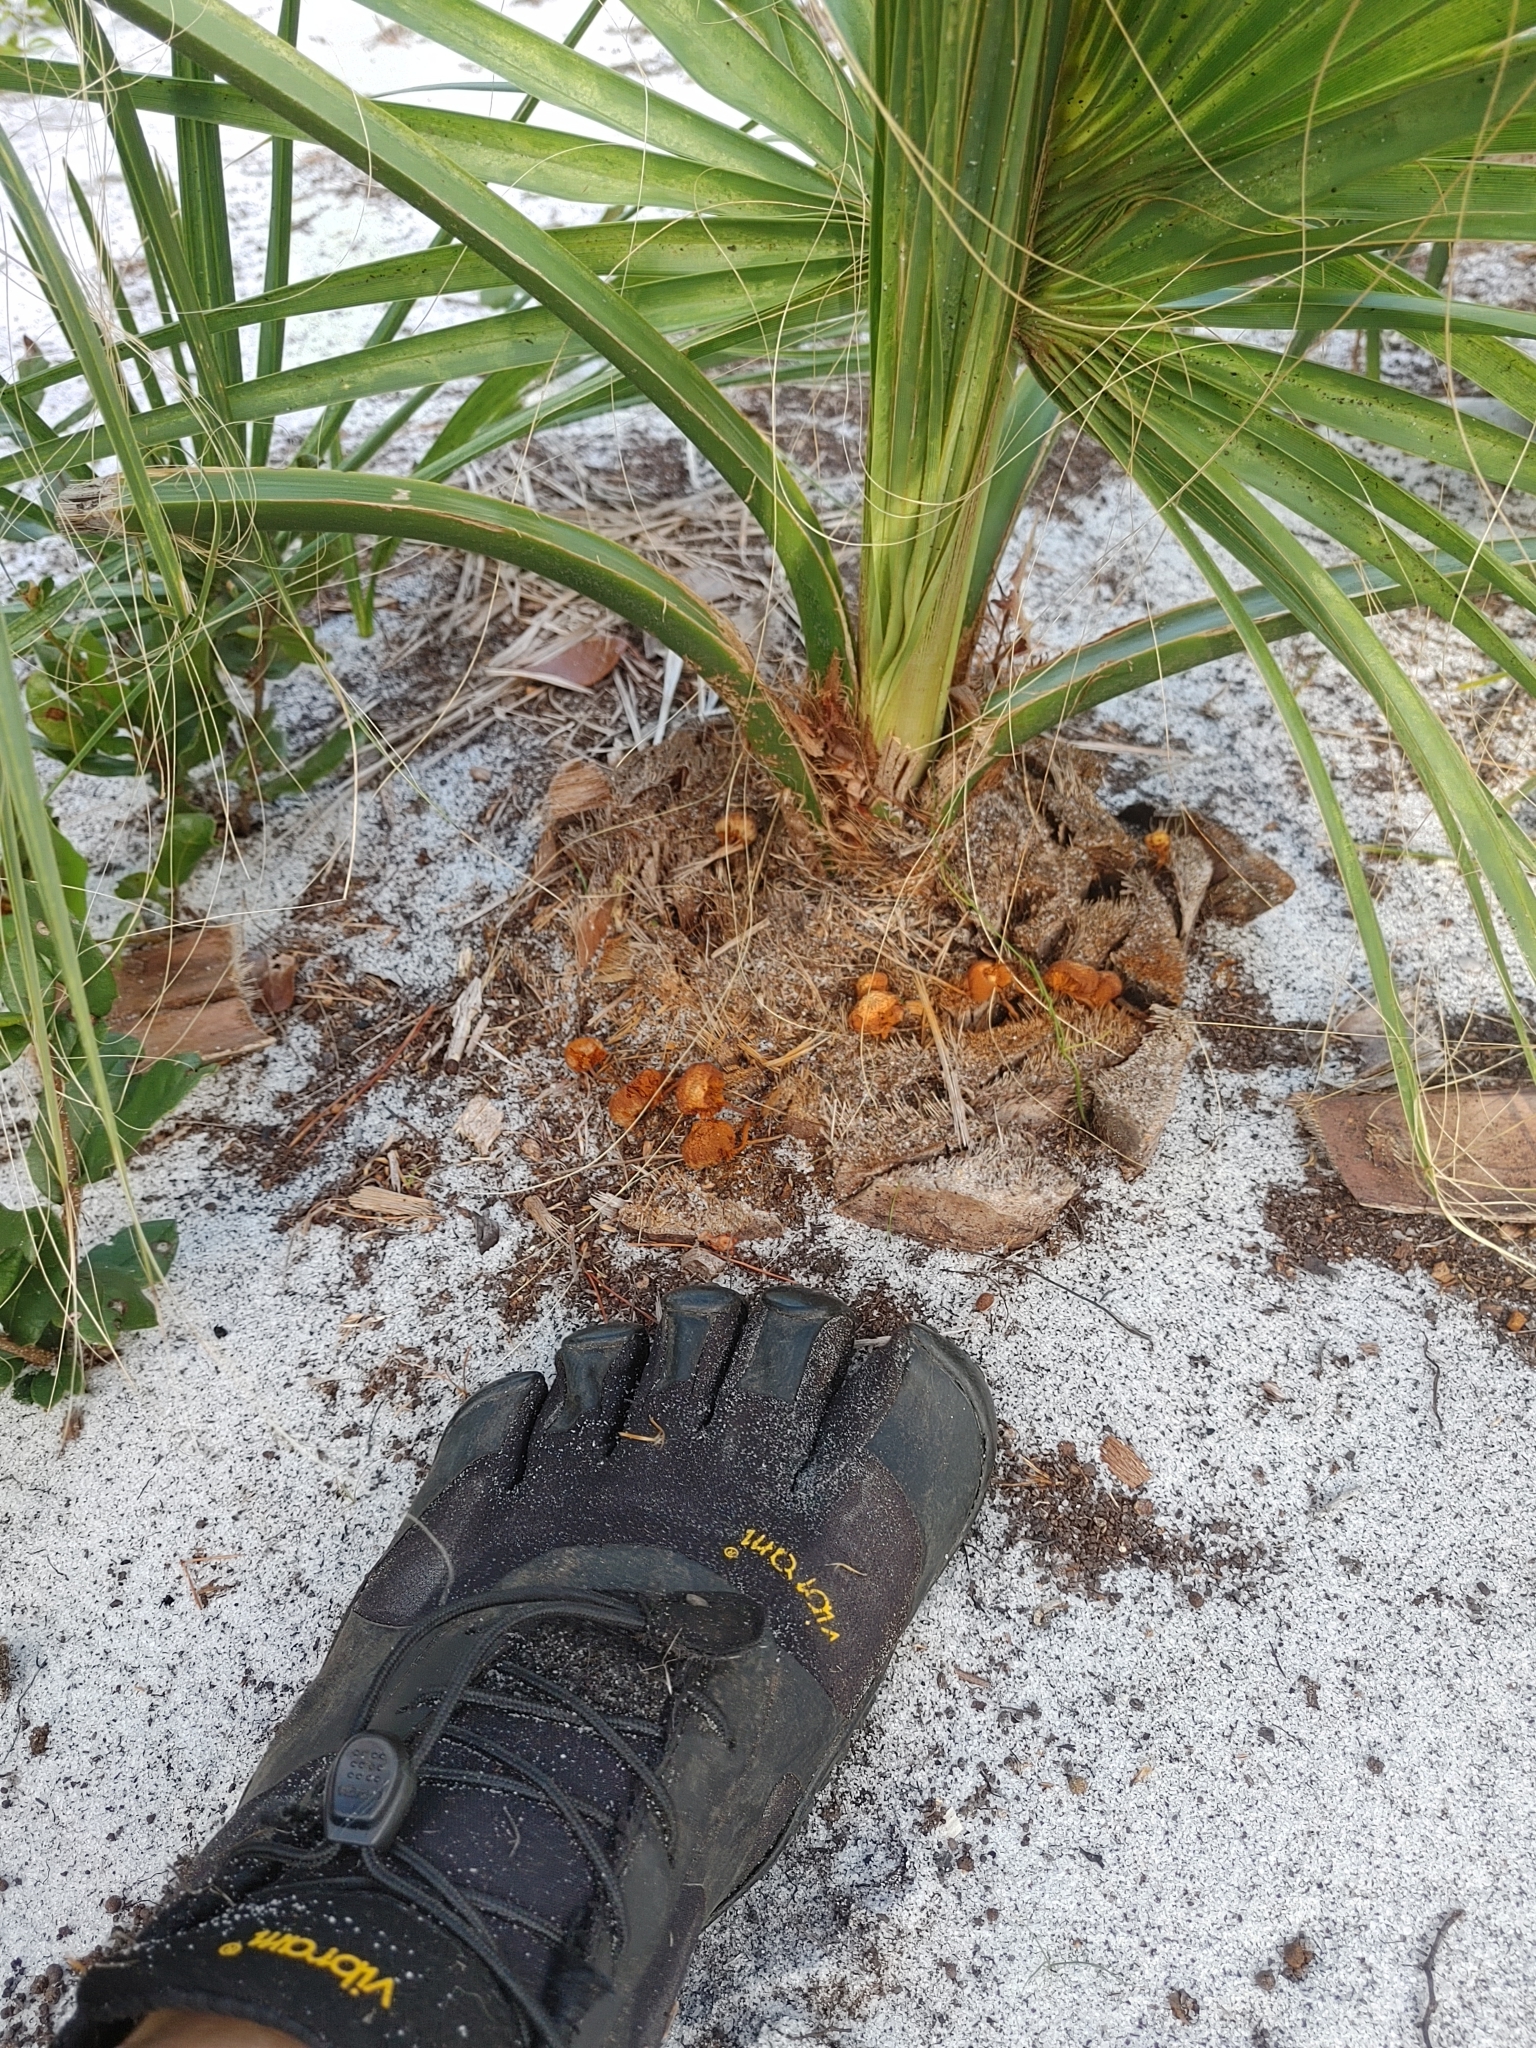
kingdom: Plantae
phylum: Tracheophyta
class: Liliopsida
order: Arecales
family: Arecaceae
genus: Sabal
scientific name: Sabal palmetto
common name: Blue palmetto
